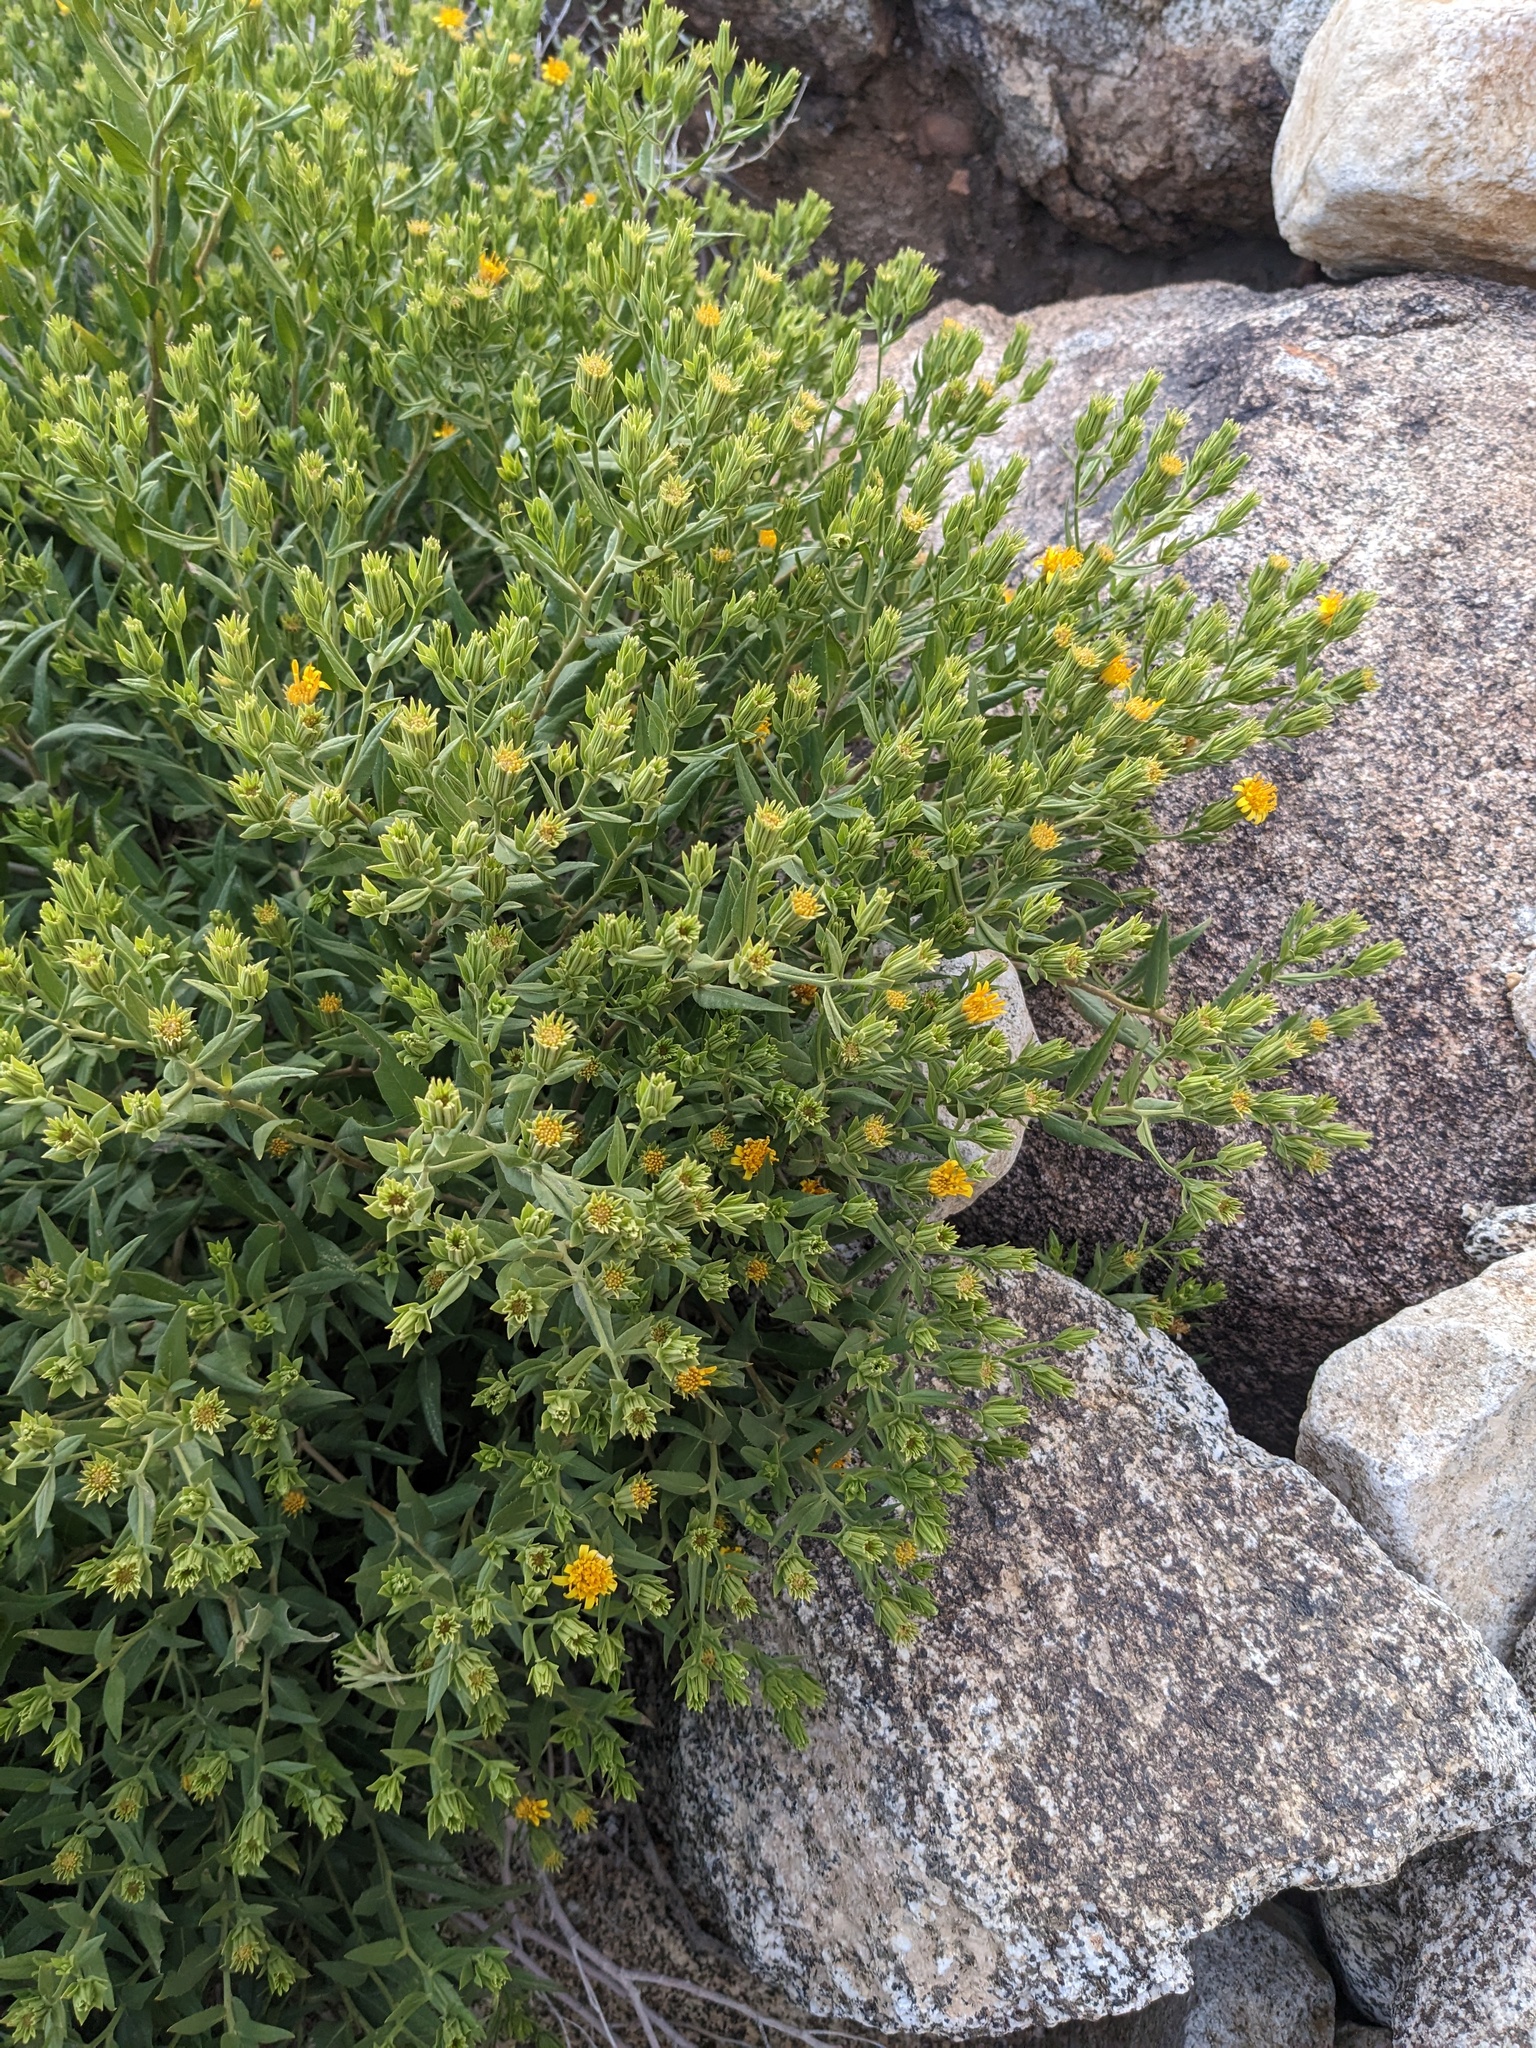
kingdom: Plantae
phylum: Tracheophyta
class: Magnoliopsida
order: Asterales
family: Asteraceae
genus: Trixis
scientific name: Trixis californica
